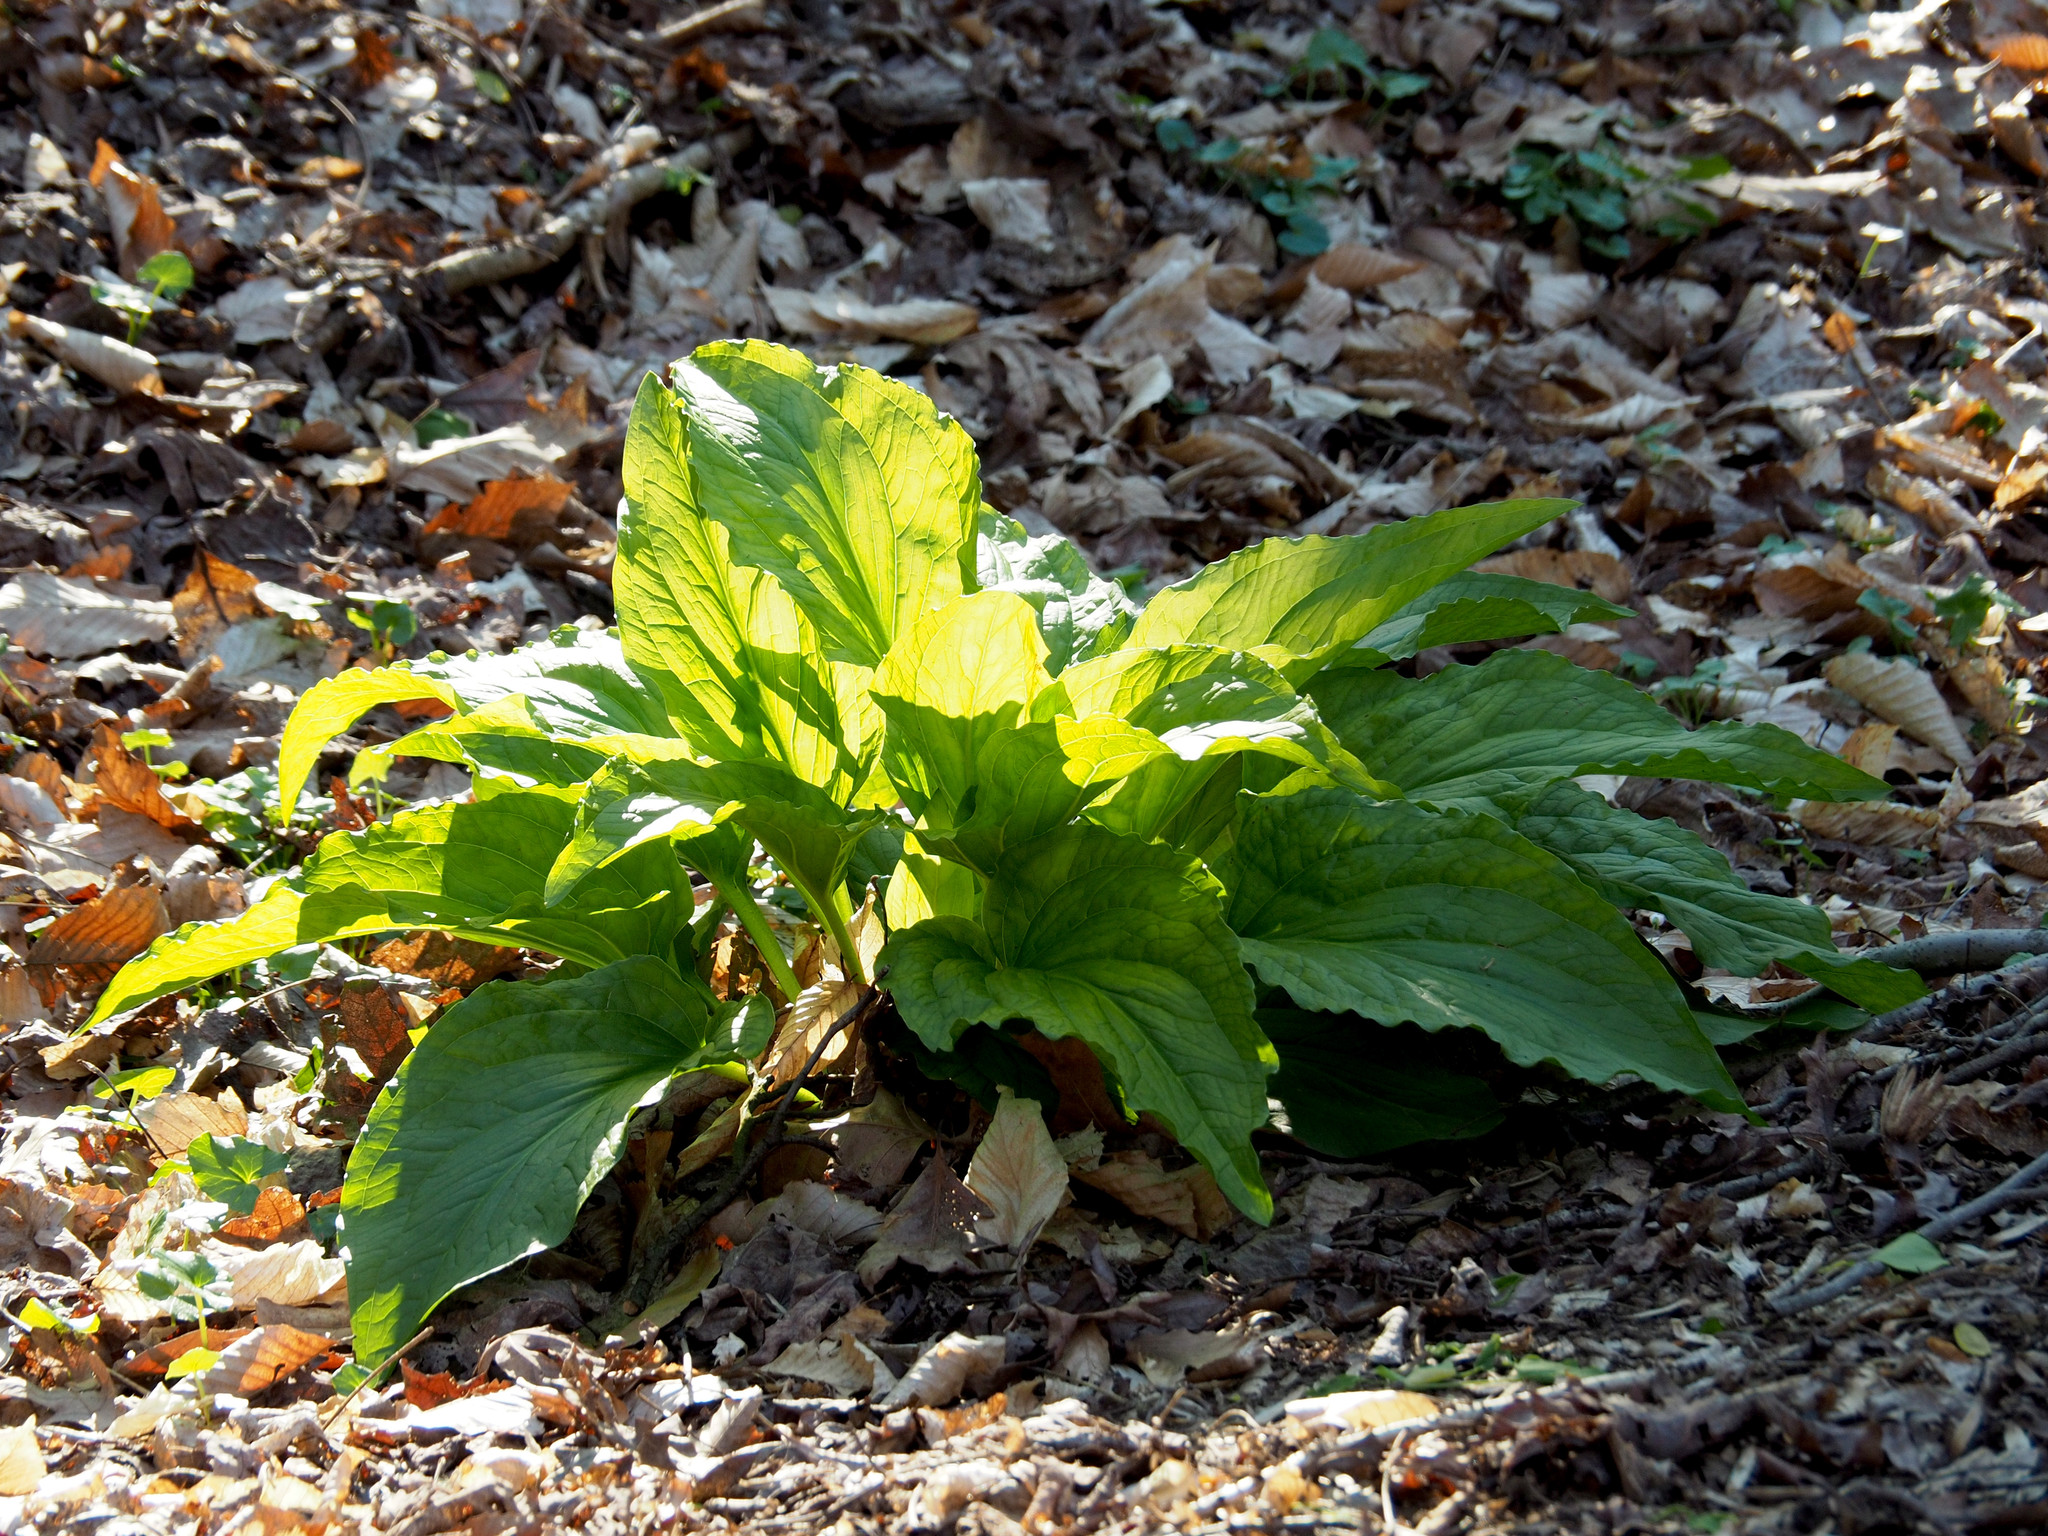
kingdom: Plantae
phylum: Tracheophyta
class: Liliopsida
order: Alismatales
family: Araceae
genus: Symplocarpus
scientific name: Symplocarpus foetidus
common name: Eastern skunk cabbage
